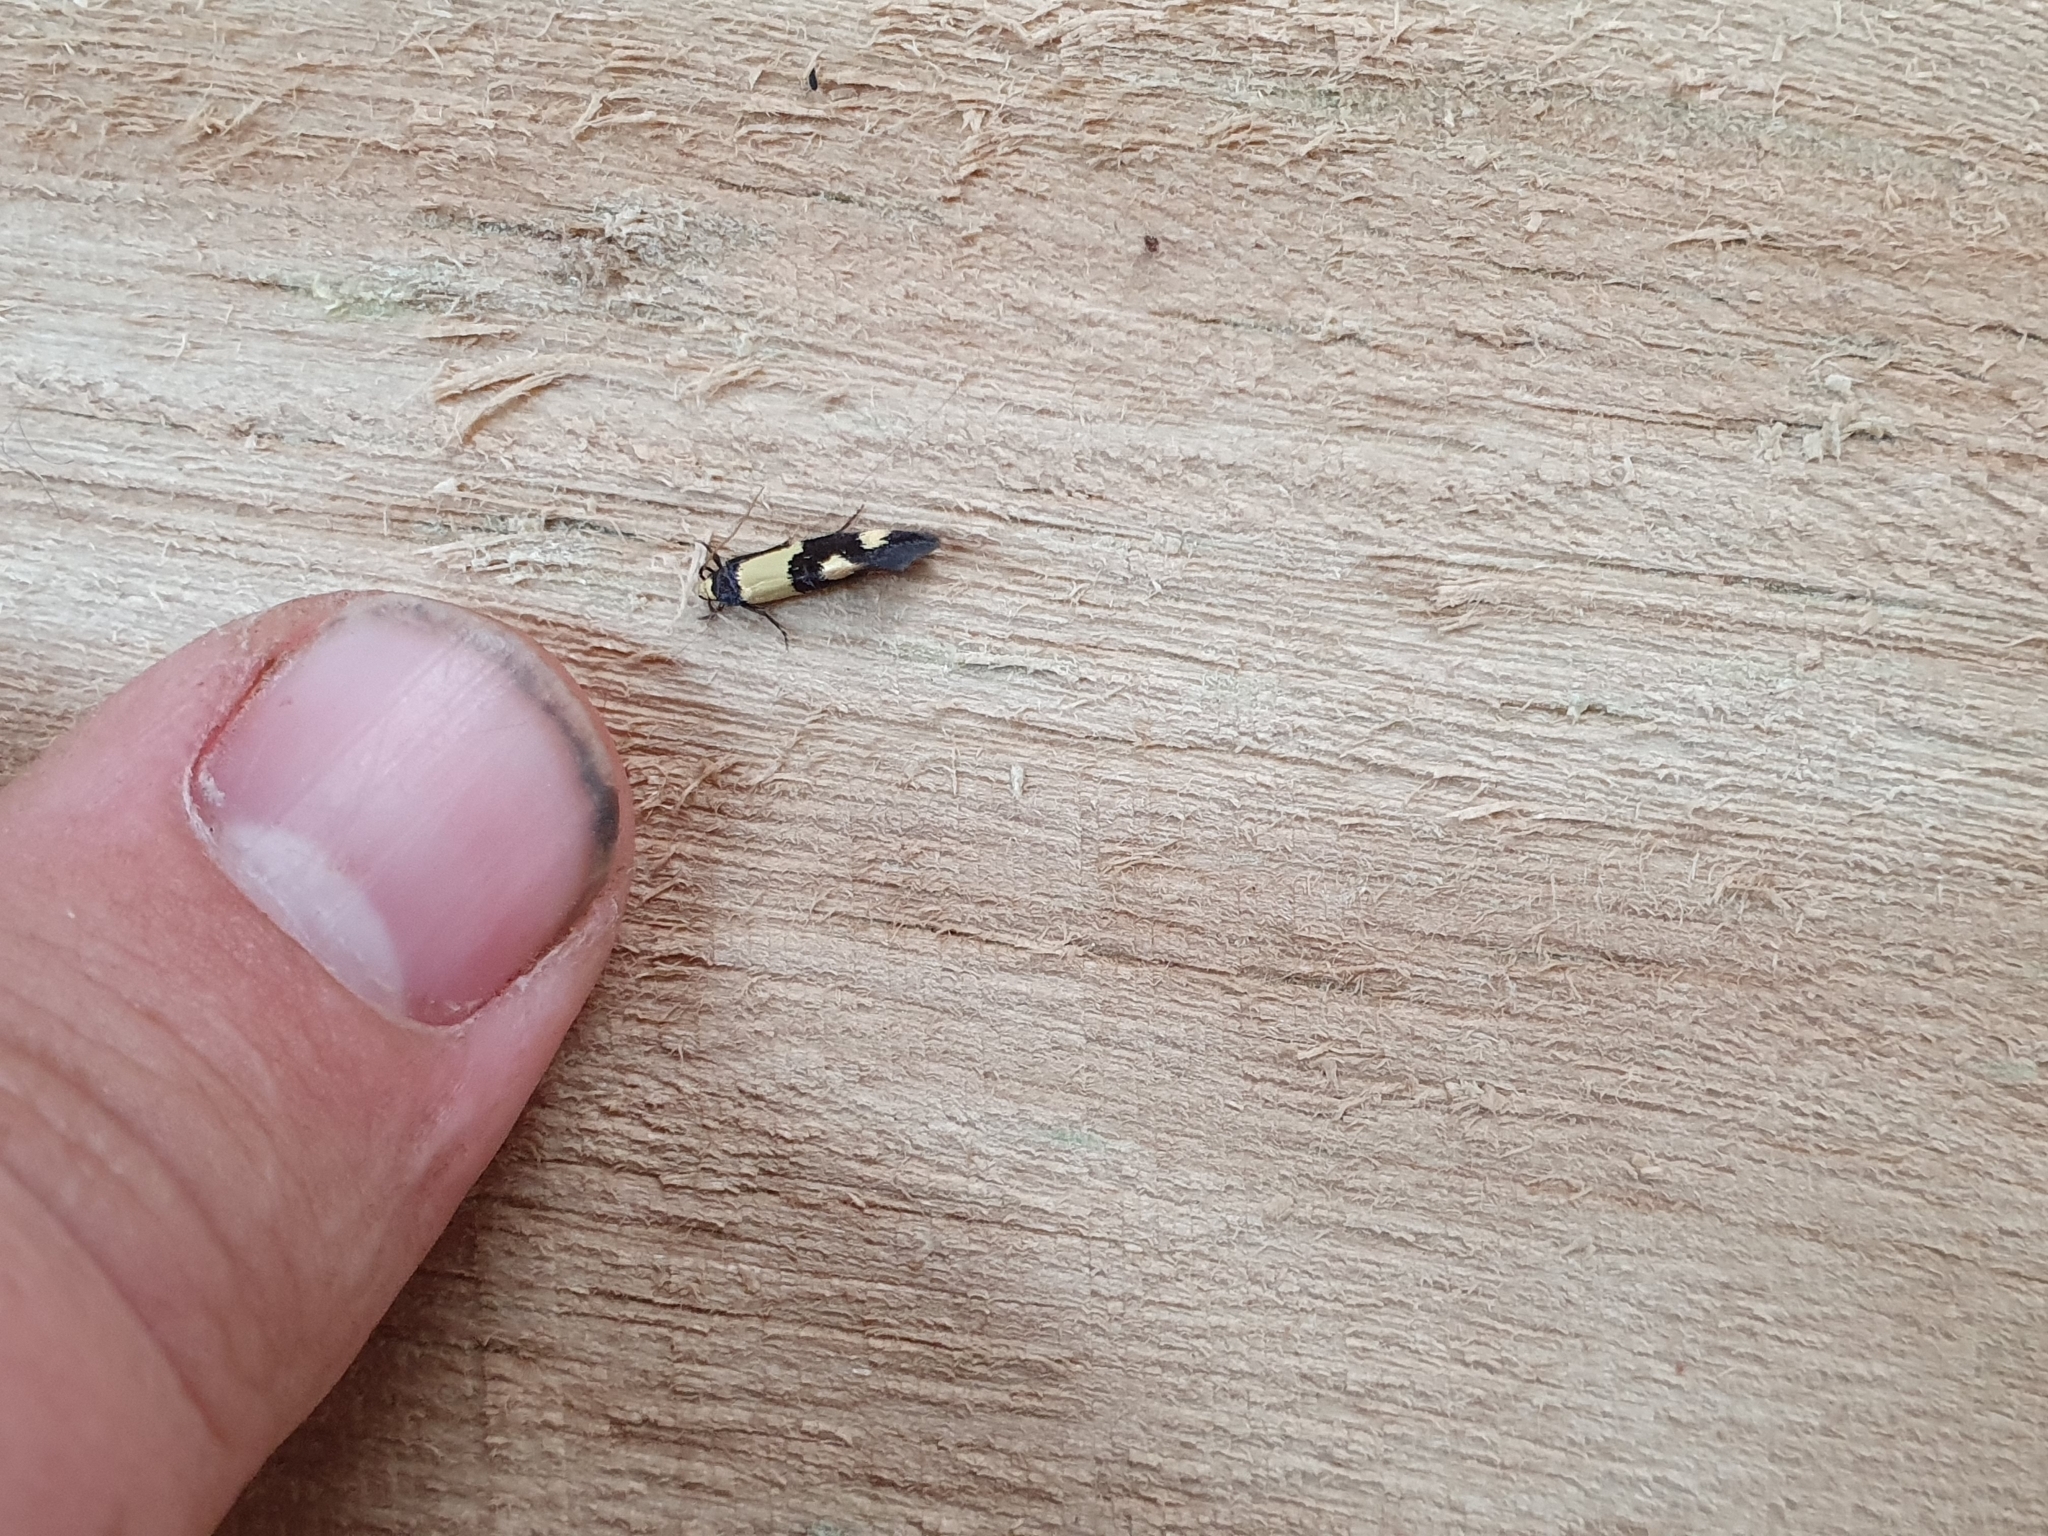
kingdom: Animalia
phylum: Arthropoda
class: Insecta
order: Lepidoptera
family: Tineidae
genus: Opogona
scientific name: Opogona comptella
